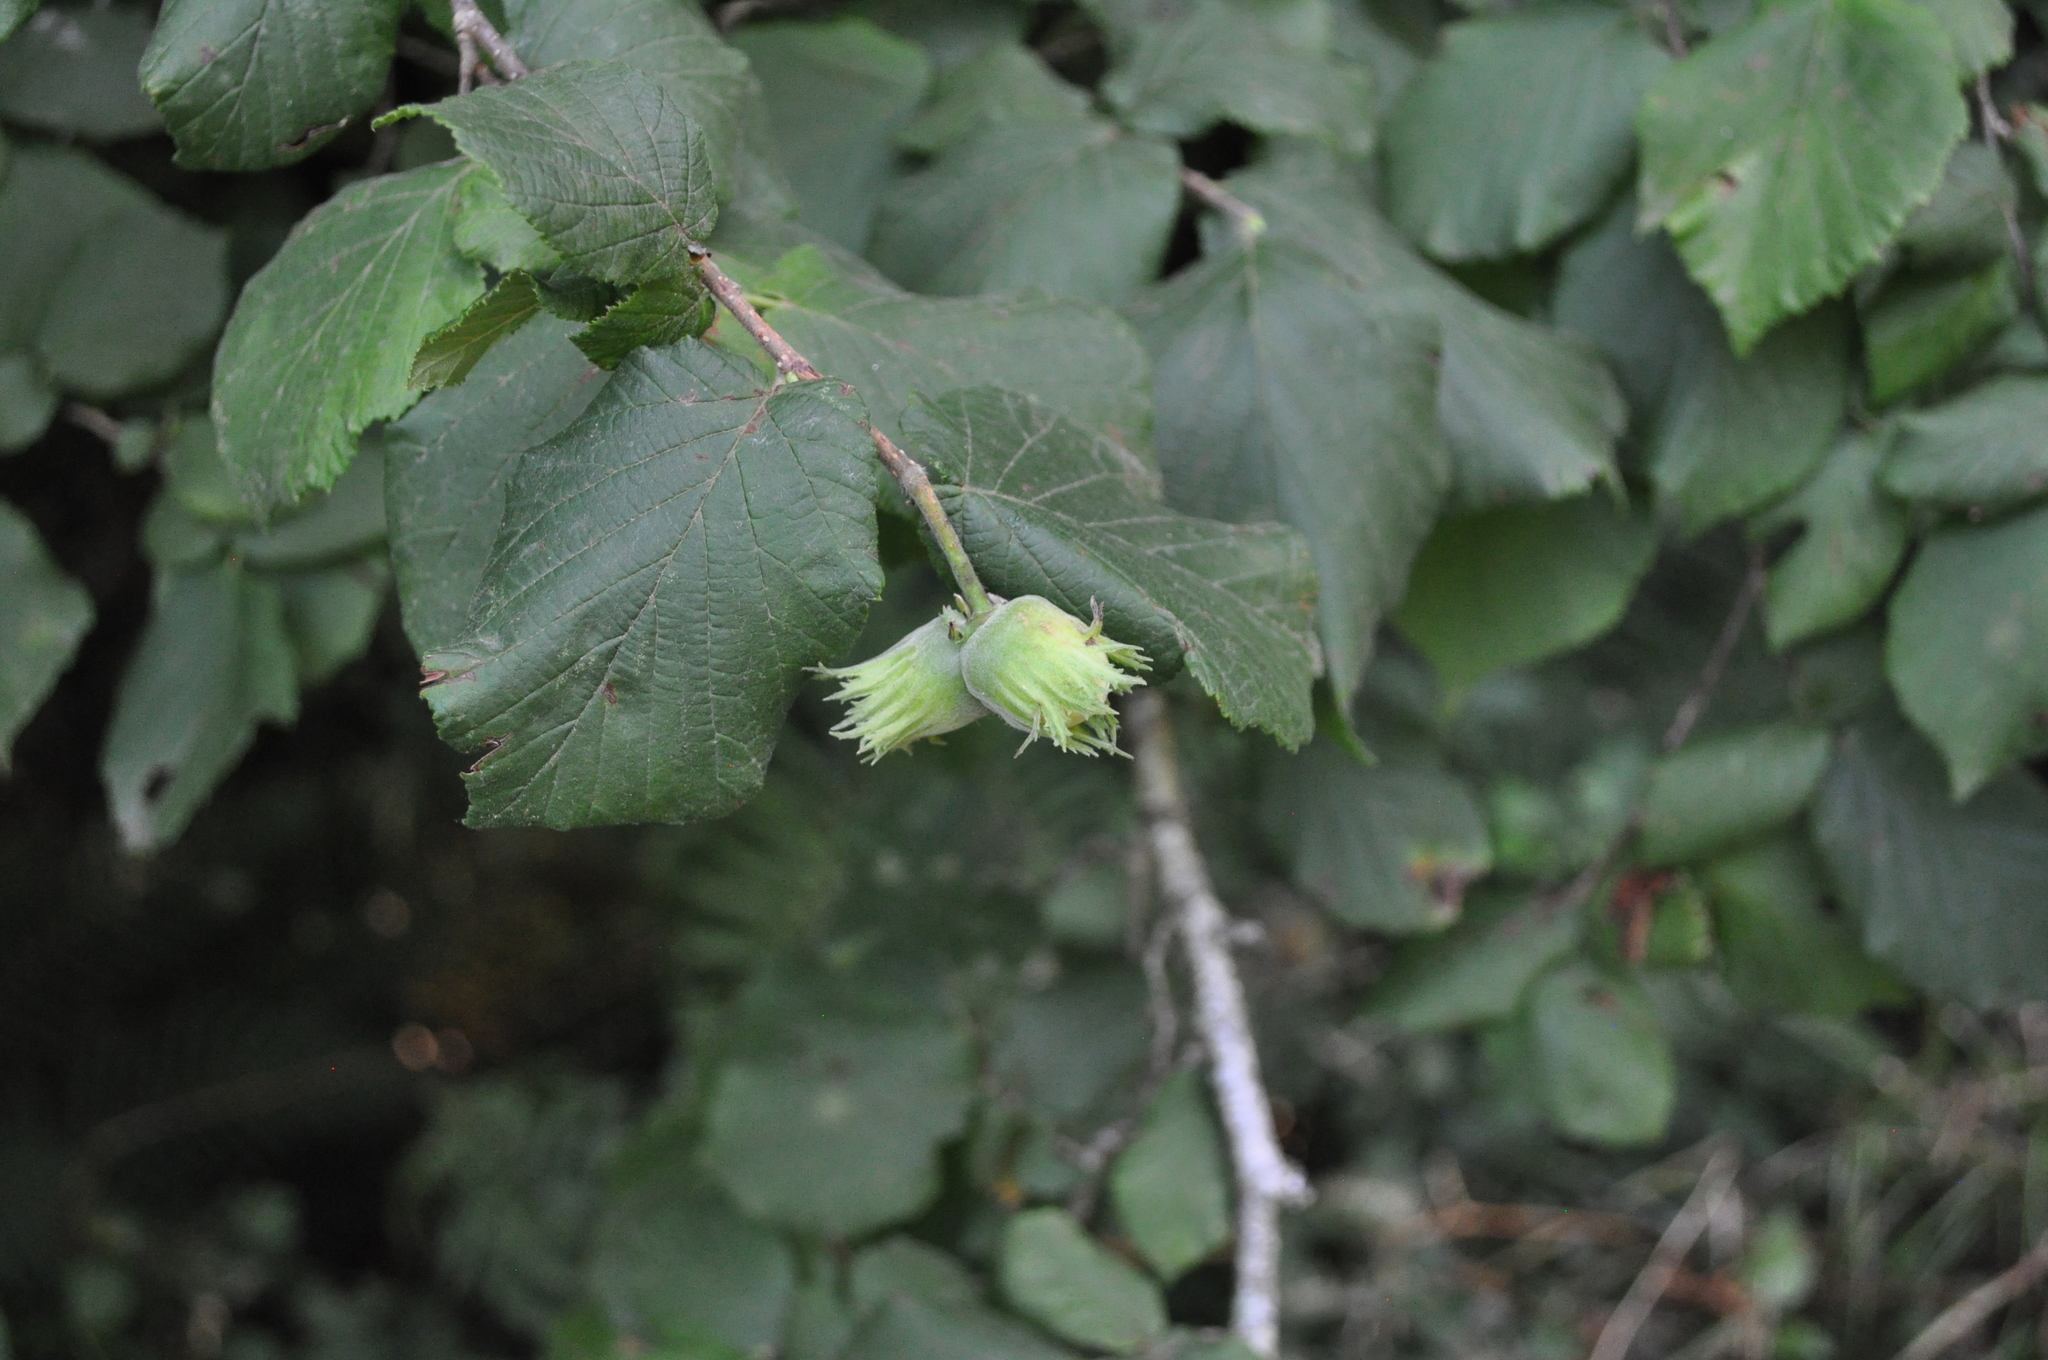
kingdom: Plantae
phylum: Tracheophyta
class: Magnoliopsida
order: Fagales
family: Betulaceae
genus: Corylus
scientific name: Corylus avellana
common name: European hazel
